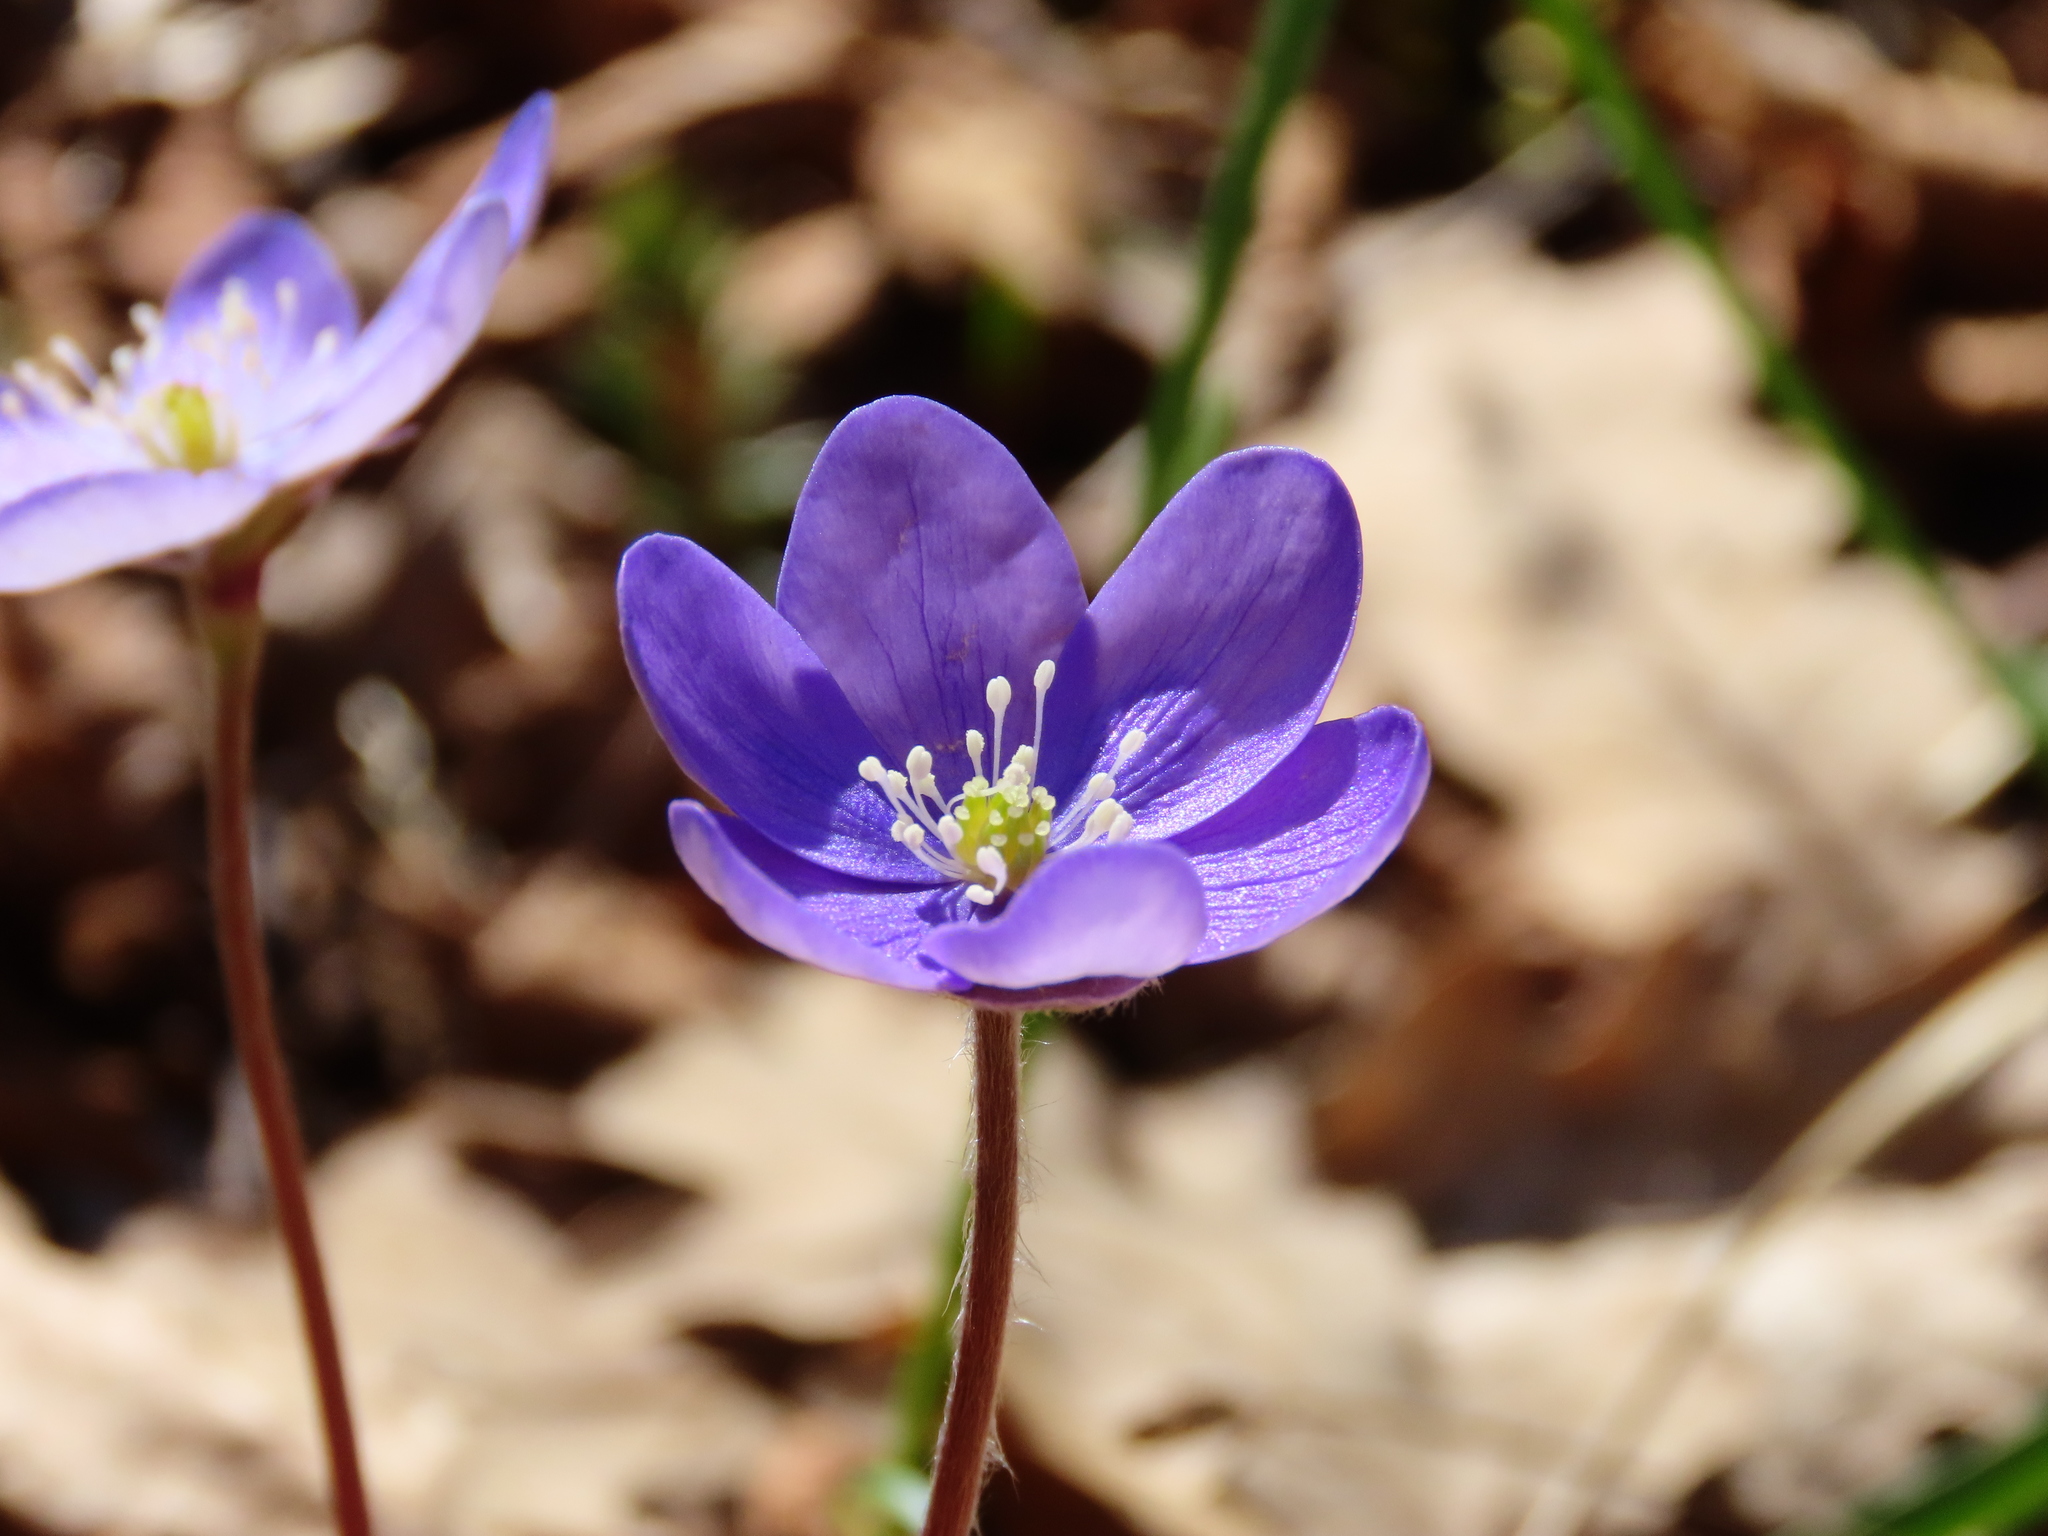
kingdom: Plantae
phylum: Tracheophyta
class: Magnoliopsida
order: Ranunculales
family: Ranunculaceae
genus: Hepatica
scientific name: Hepatica nobilis
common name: Liverleaf
